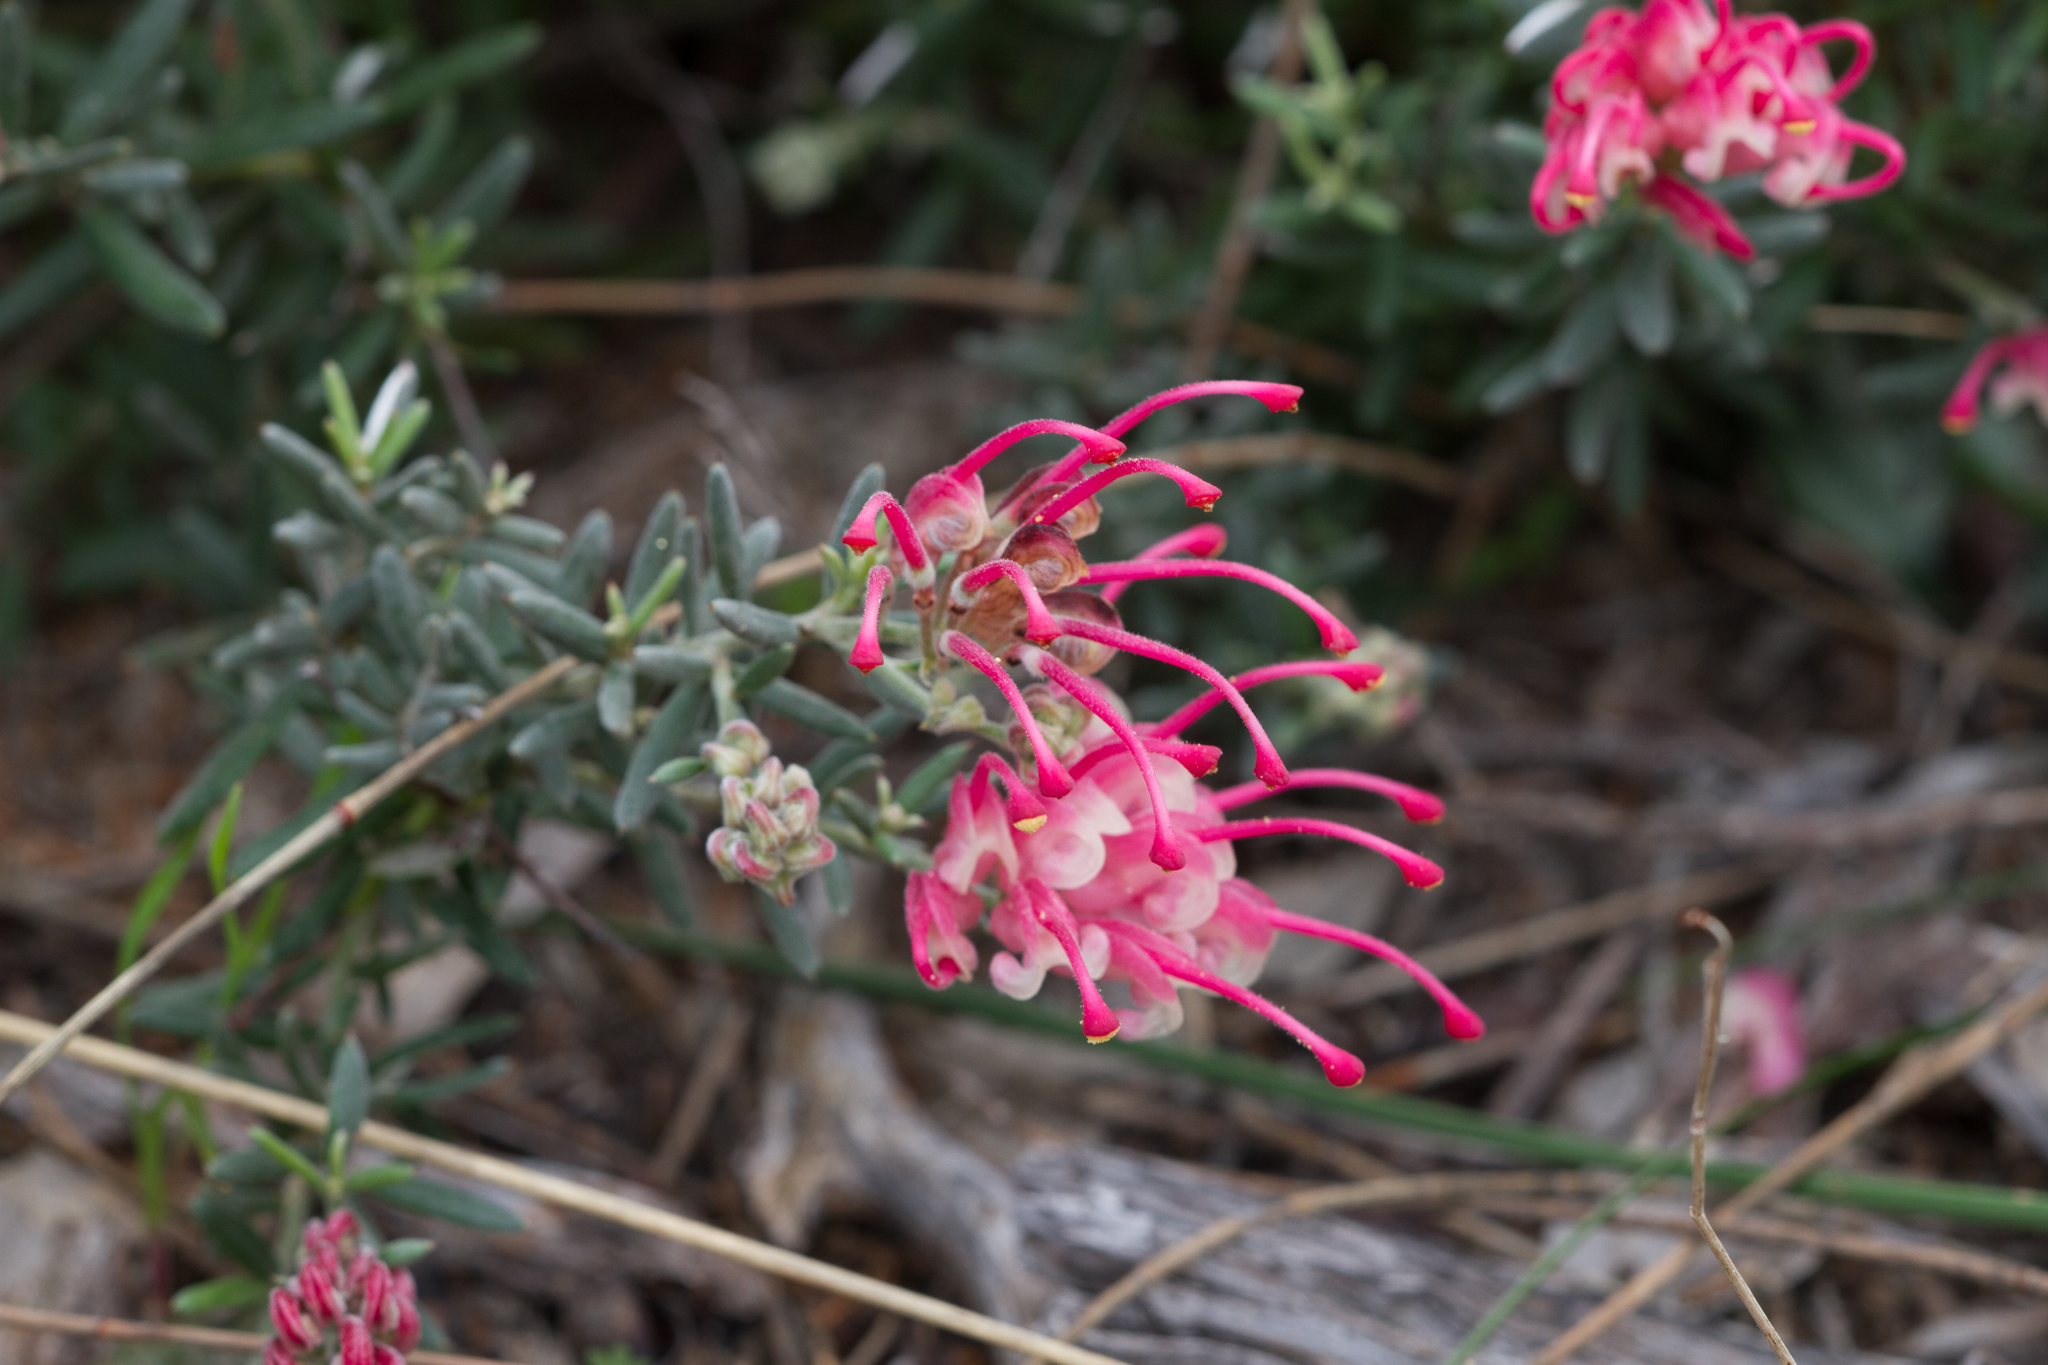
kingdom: Plantae
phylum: Tracheophyta
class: Magnoliopsida
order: Proteales
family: Proteaceae
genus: Grevillea
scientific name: Grevillea lavandulacea
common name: Lavender grevillea
